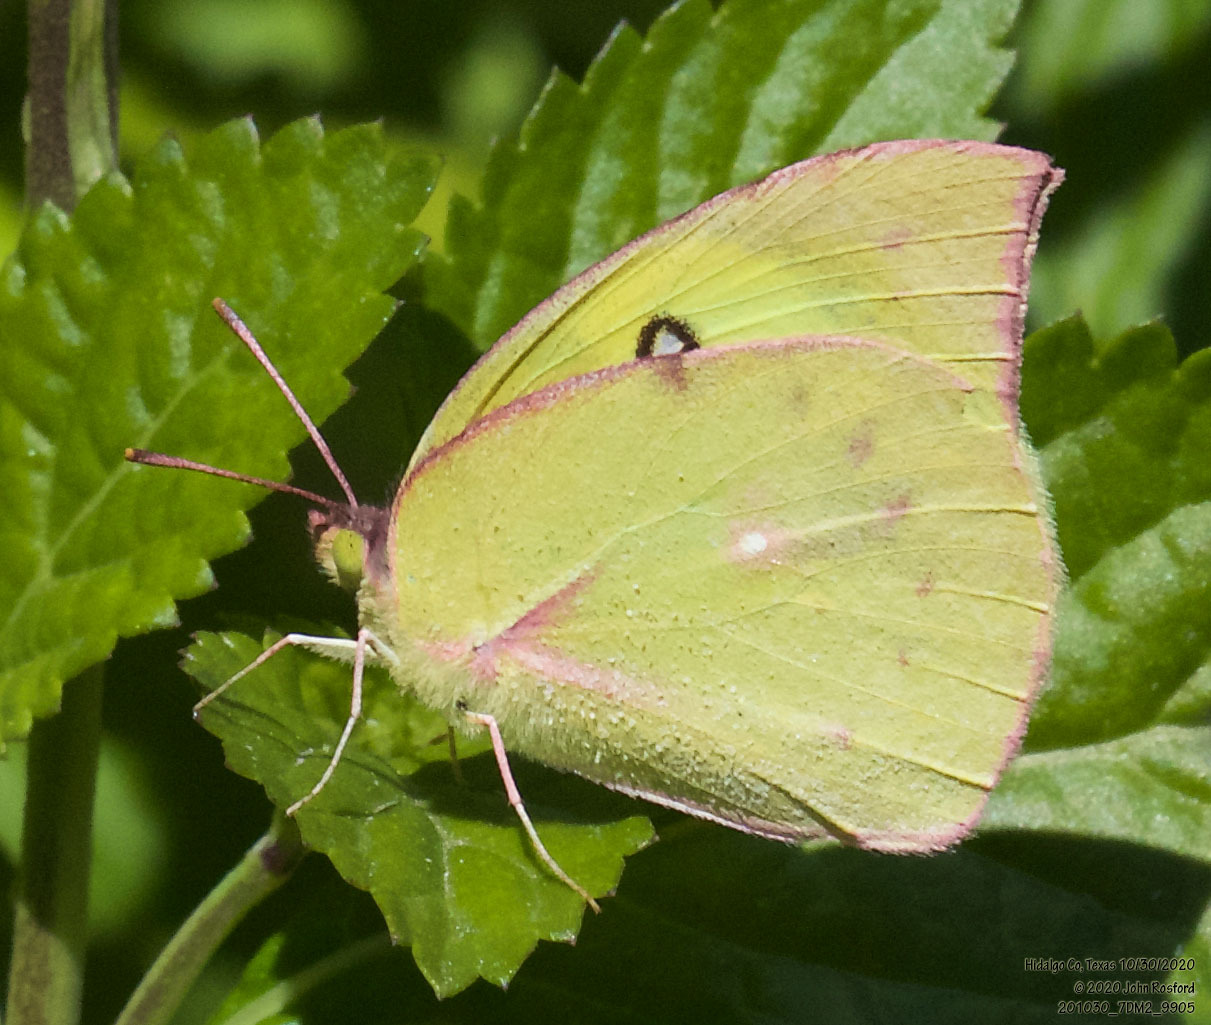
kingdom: Animalia
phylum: Arthropoda
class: Insecta
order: Lepidoptera
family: Pieridae
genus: Zerene
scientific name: Zerene cesonia
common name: Southern dogface
